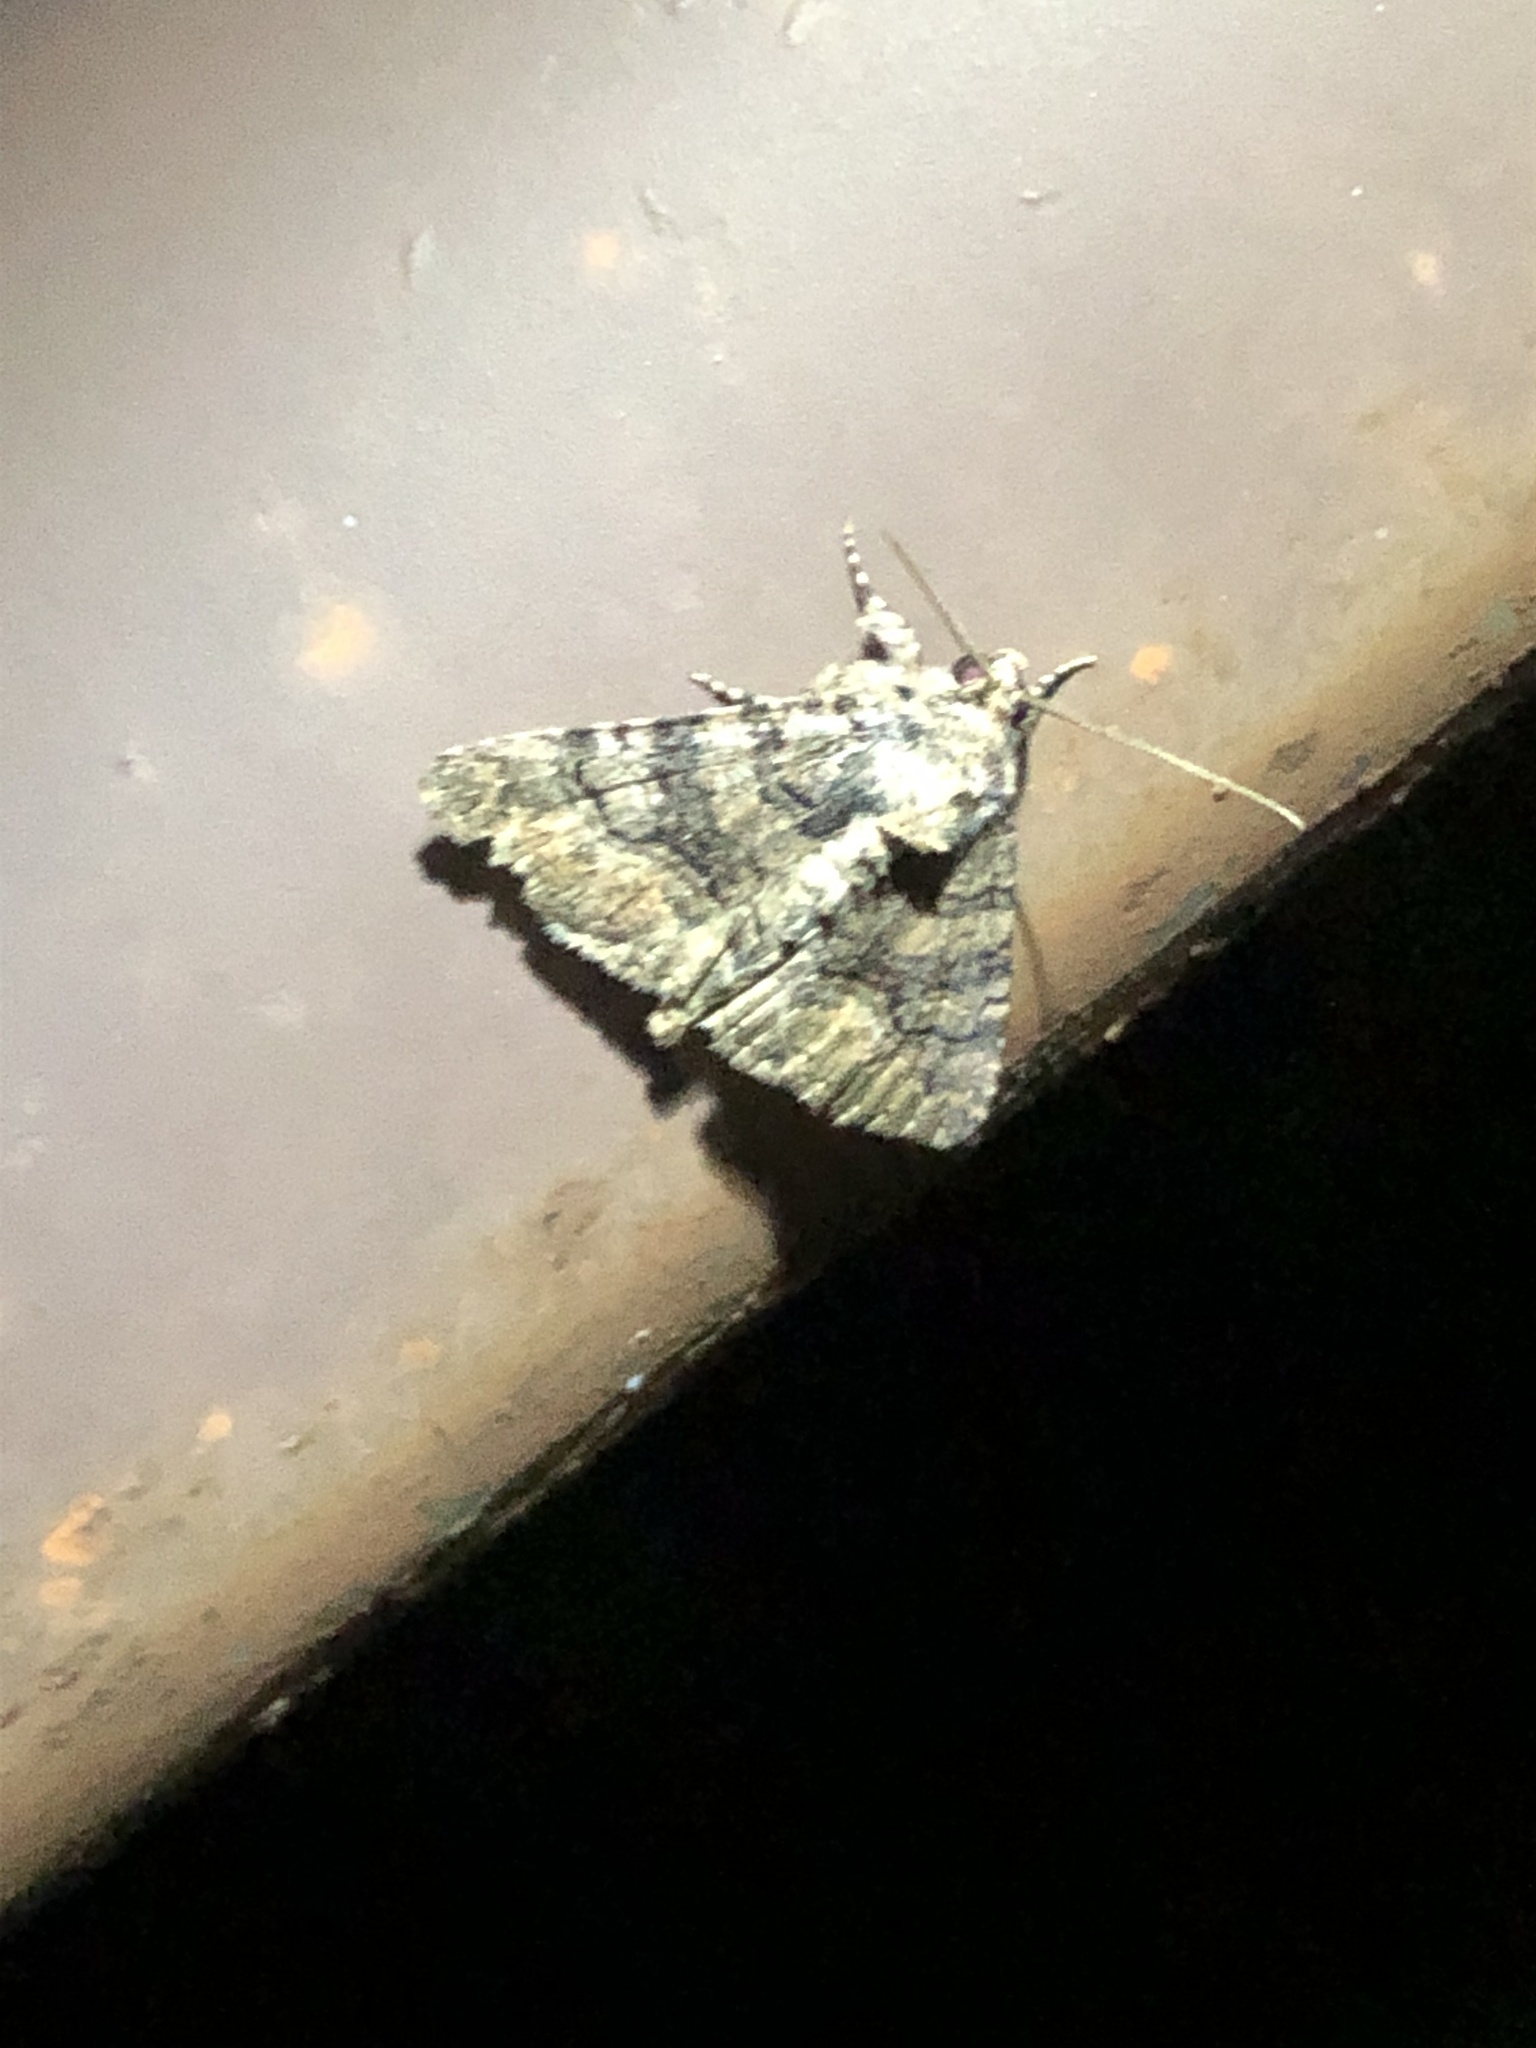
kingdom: Animalia
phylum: Arthropoda
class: Insecta
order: Lepidoptera
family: Erebidae
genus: Elousa
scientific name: Elousa mima
